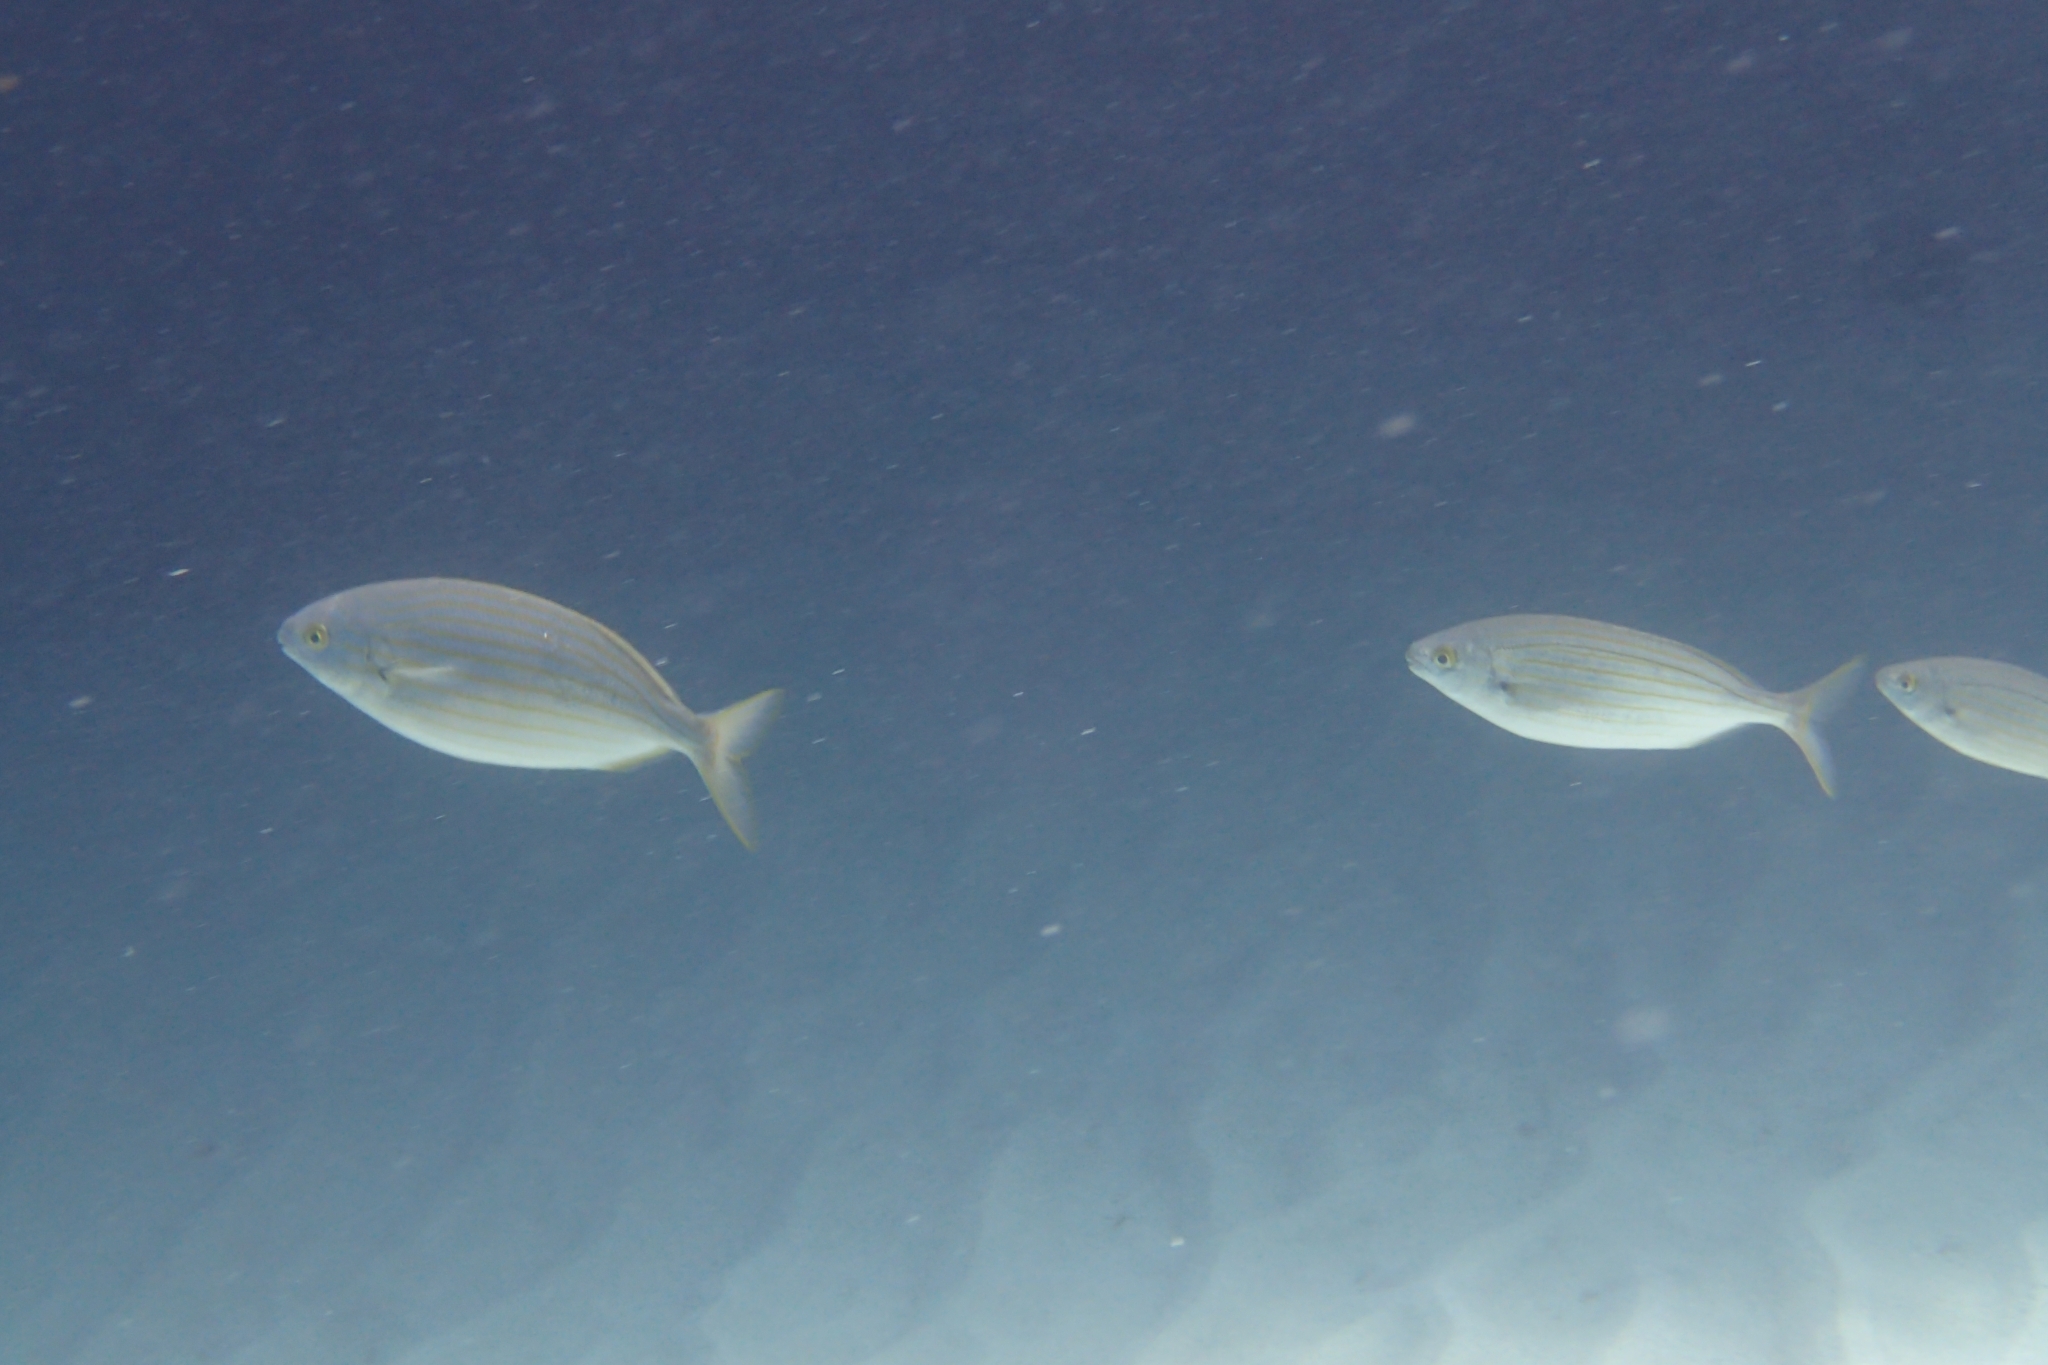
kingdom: Animalia
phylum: Chordata
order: Perciformes
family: Sparidae
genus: Sarpa
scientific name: Sarpa salpa
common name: Salema
